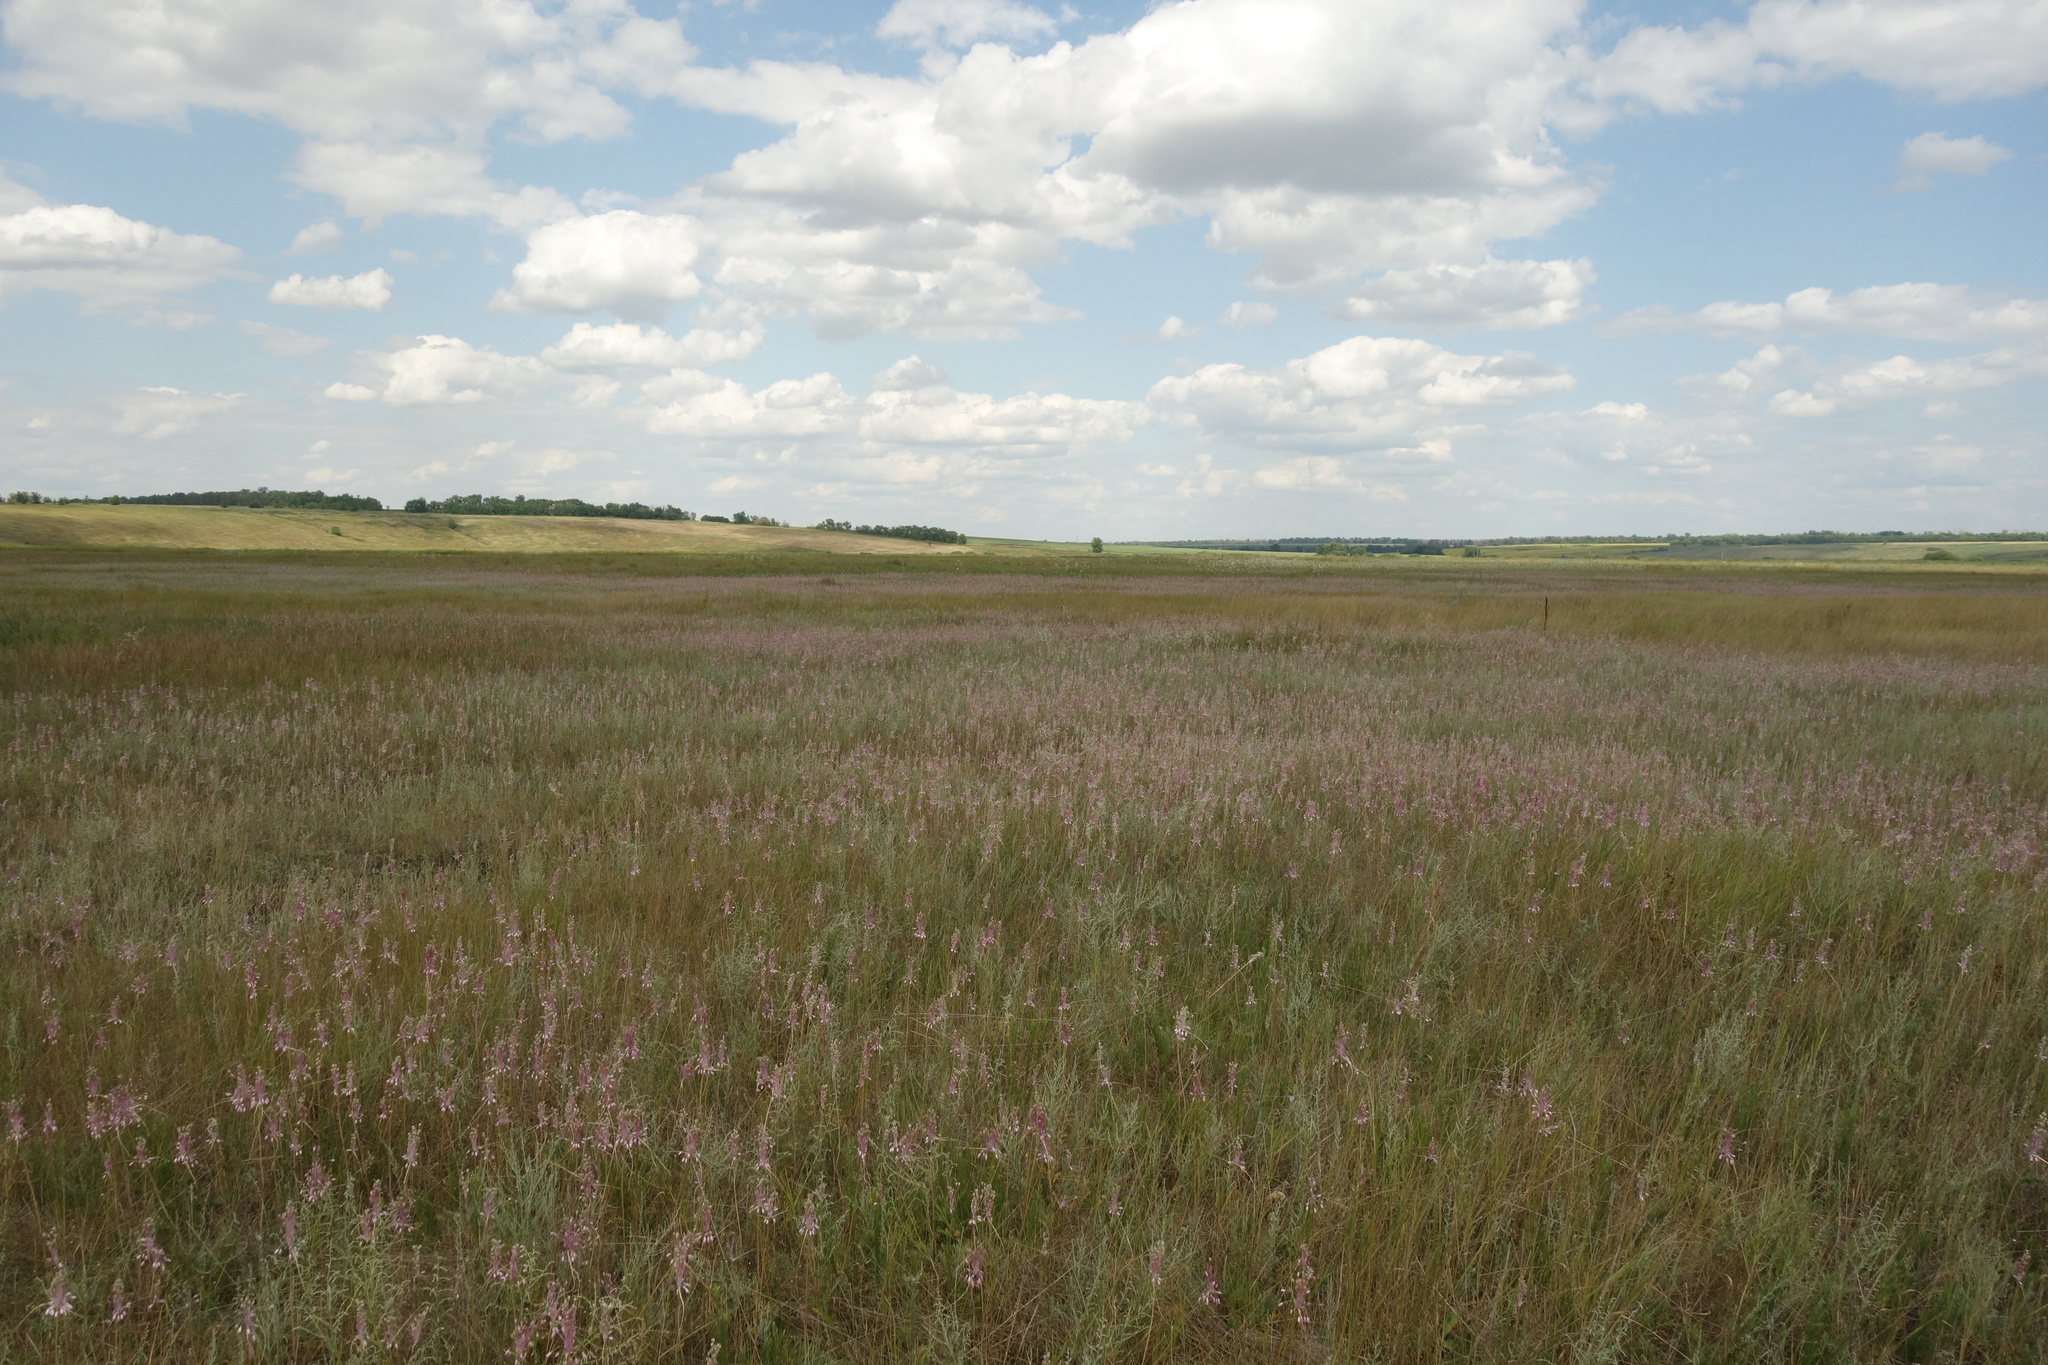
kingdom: Plantae
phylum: Tracheophyta
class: Liliopsida
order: Asparagales
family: Amaryllidaceae
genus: Allium
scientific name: Allium praescissum
